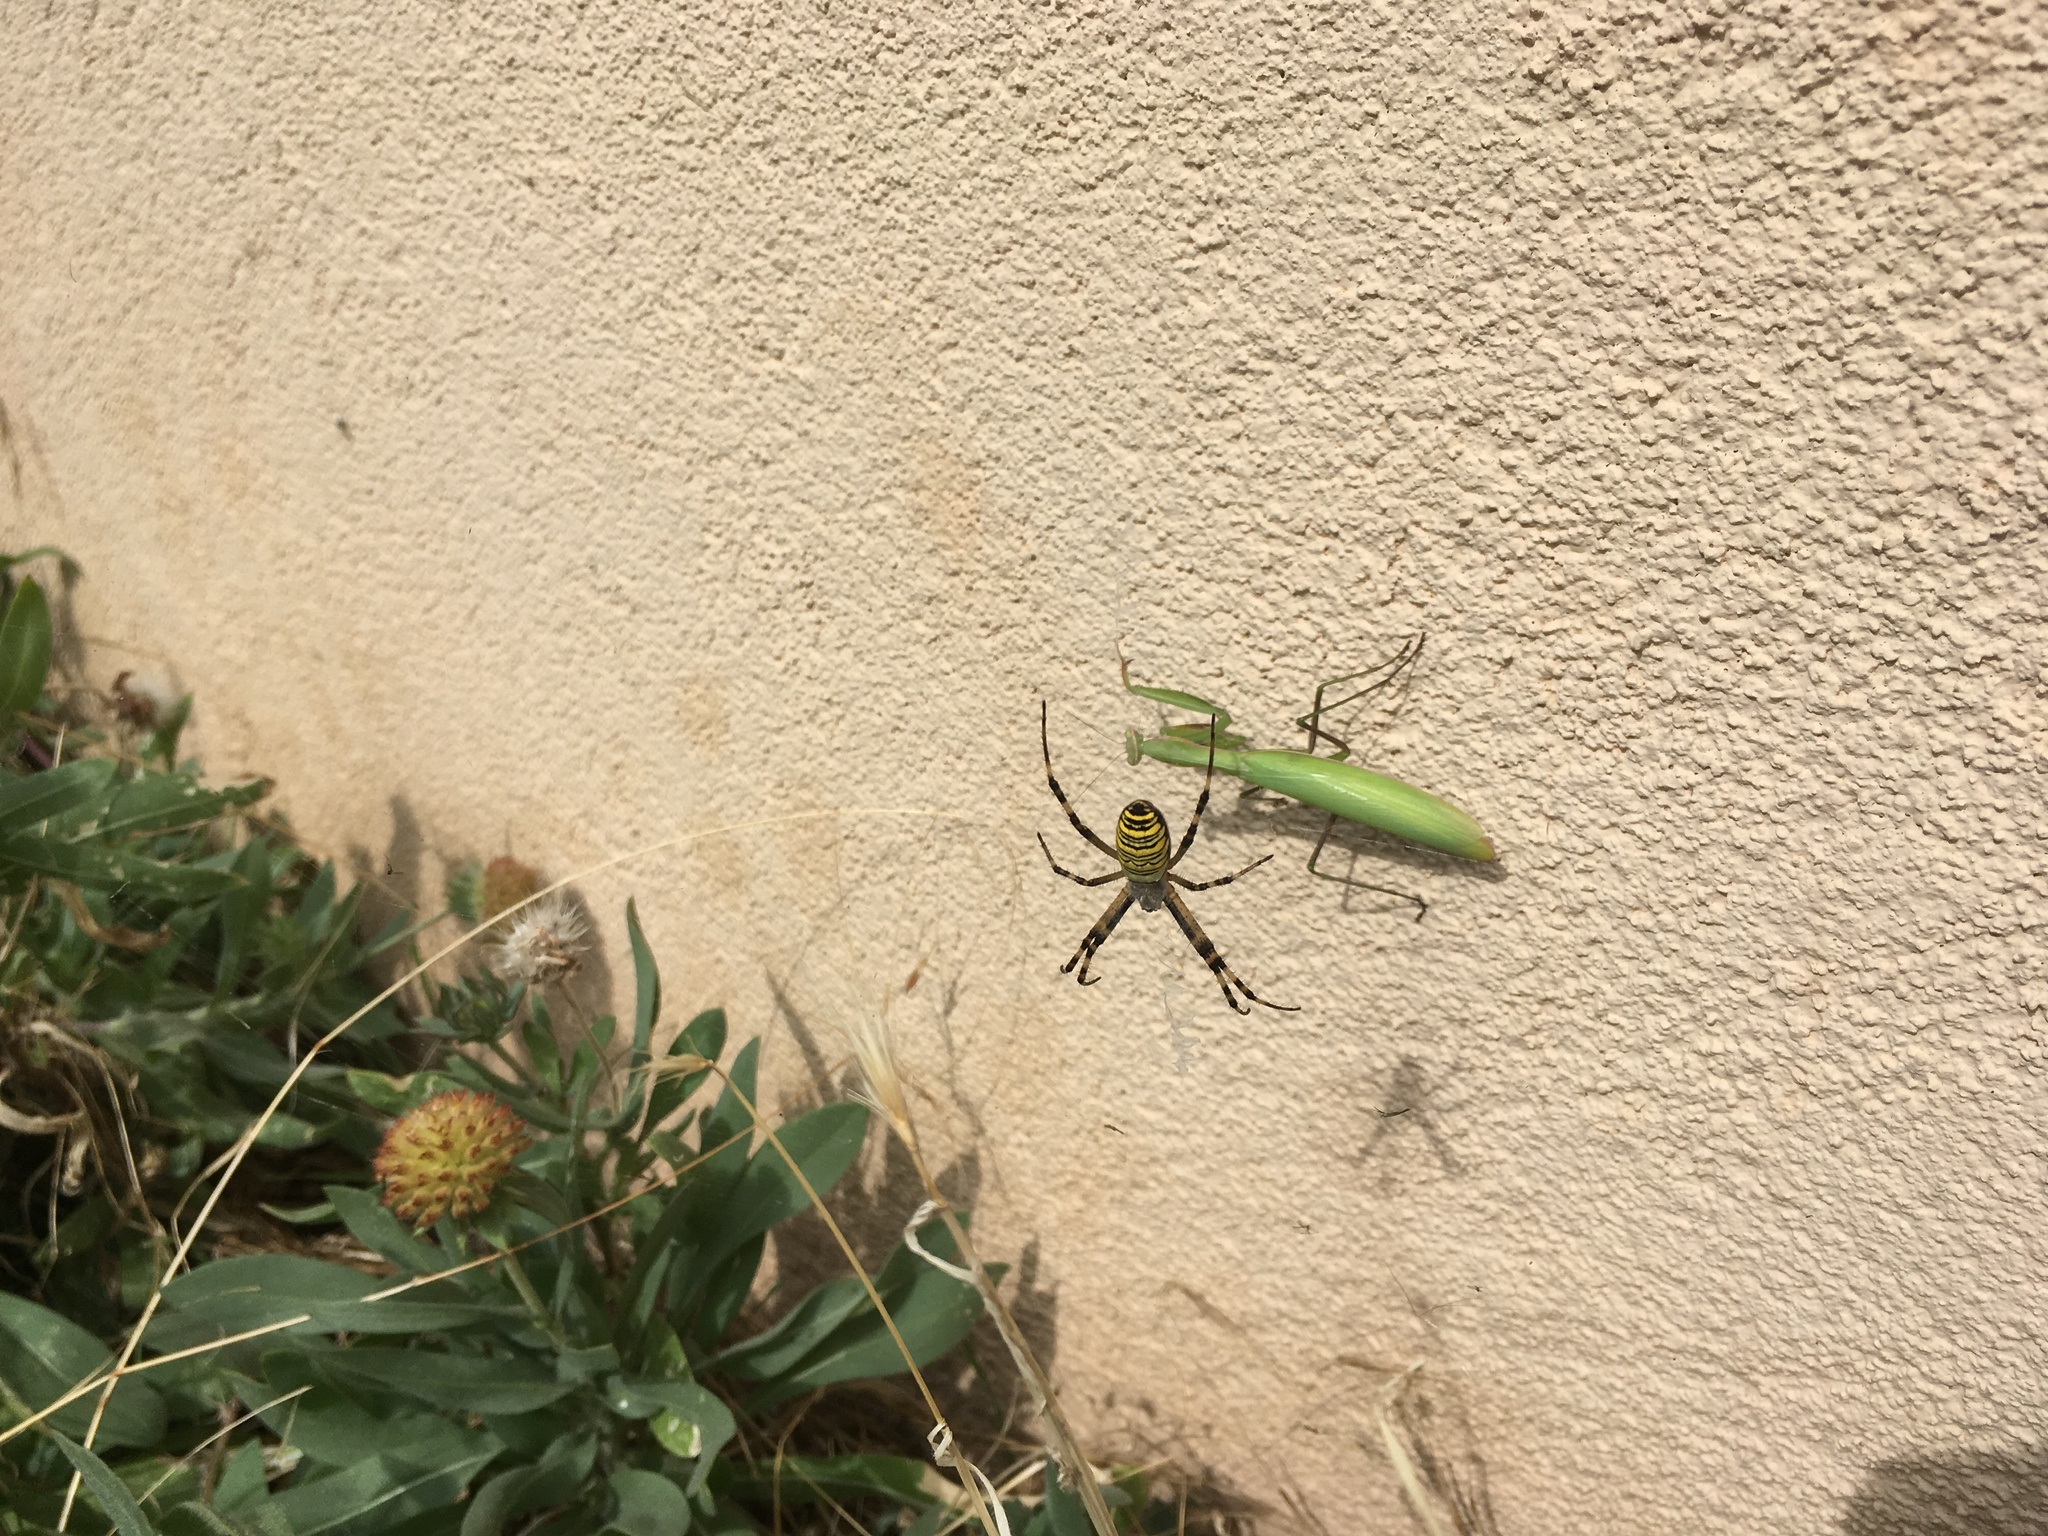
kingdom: Animalia
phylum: Arthropoda
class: Insecta
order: Mantodea
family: Mantidae
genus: Mantis
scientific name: Mantis religiosa
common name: Praying mantis
